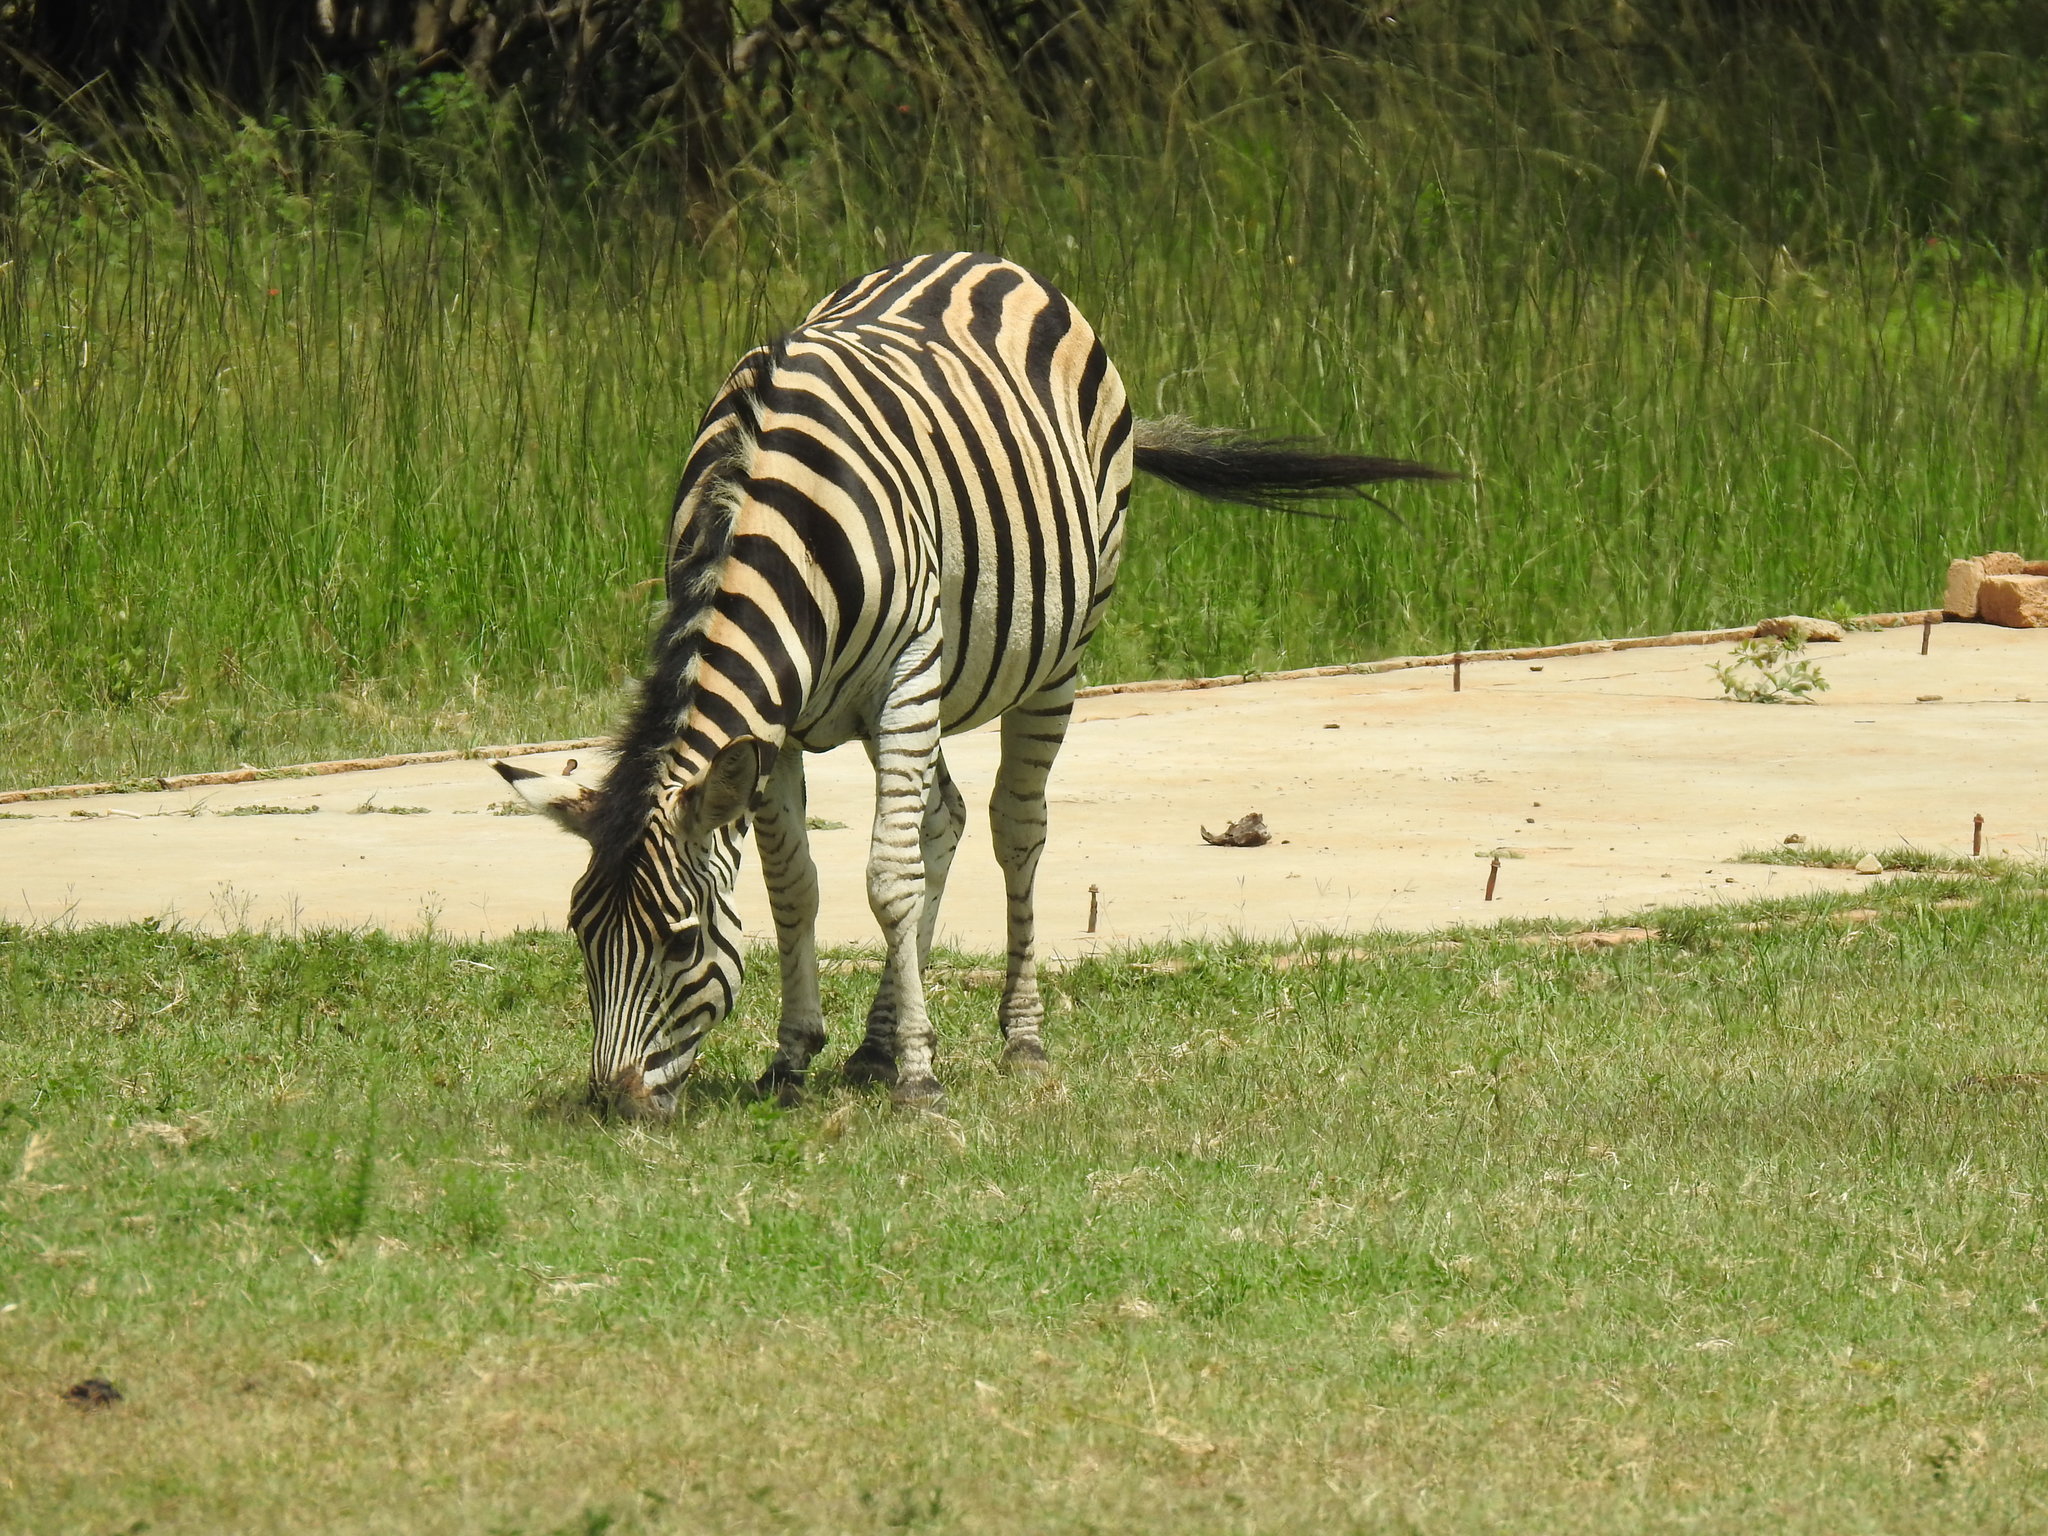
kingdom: Animalia
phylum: Chordata
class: Mammalia
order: Perissodactyla
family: Equidae
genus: Equus
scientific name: Equus quagga
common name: Plains zebra
